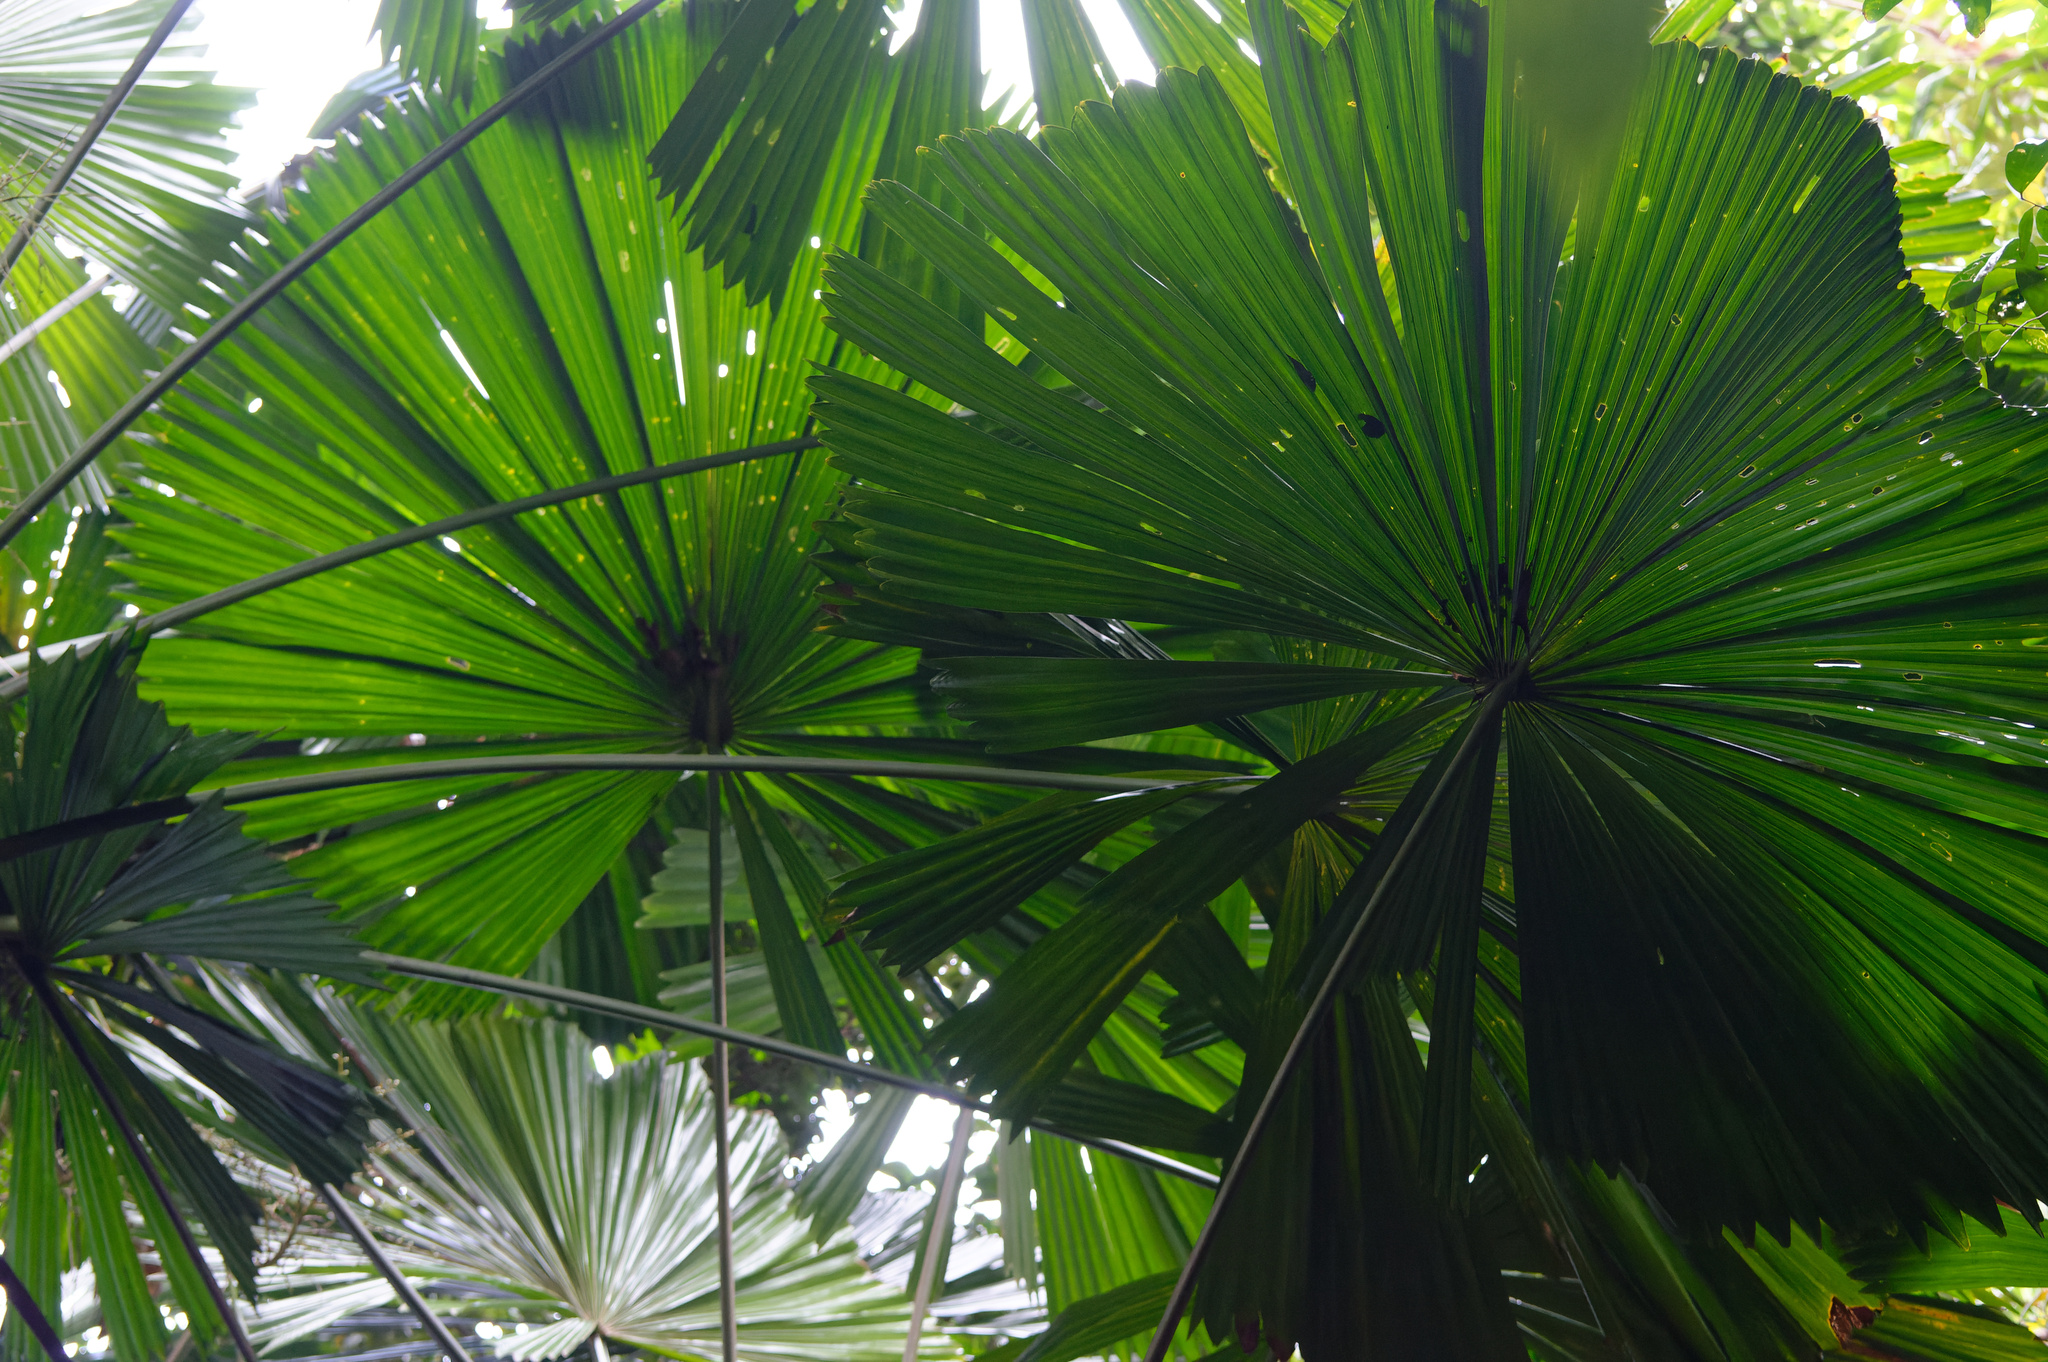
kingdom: Plantae
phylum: Tracheophyta
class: Liliopsida
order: Arecales
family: Arecaceae
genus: Licuala
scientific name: Licuala ramsayi
